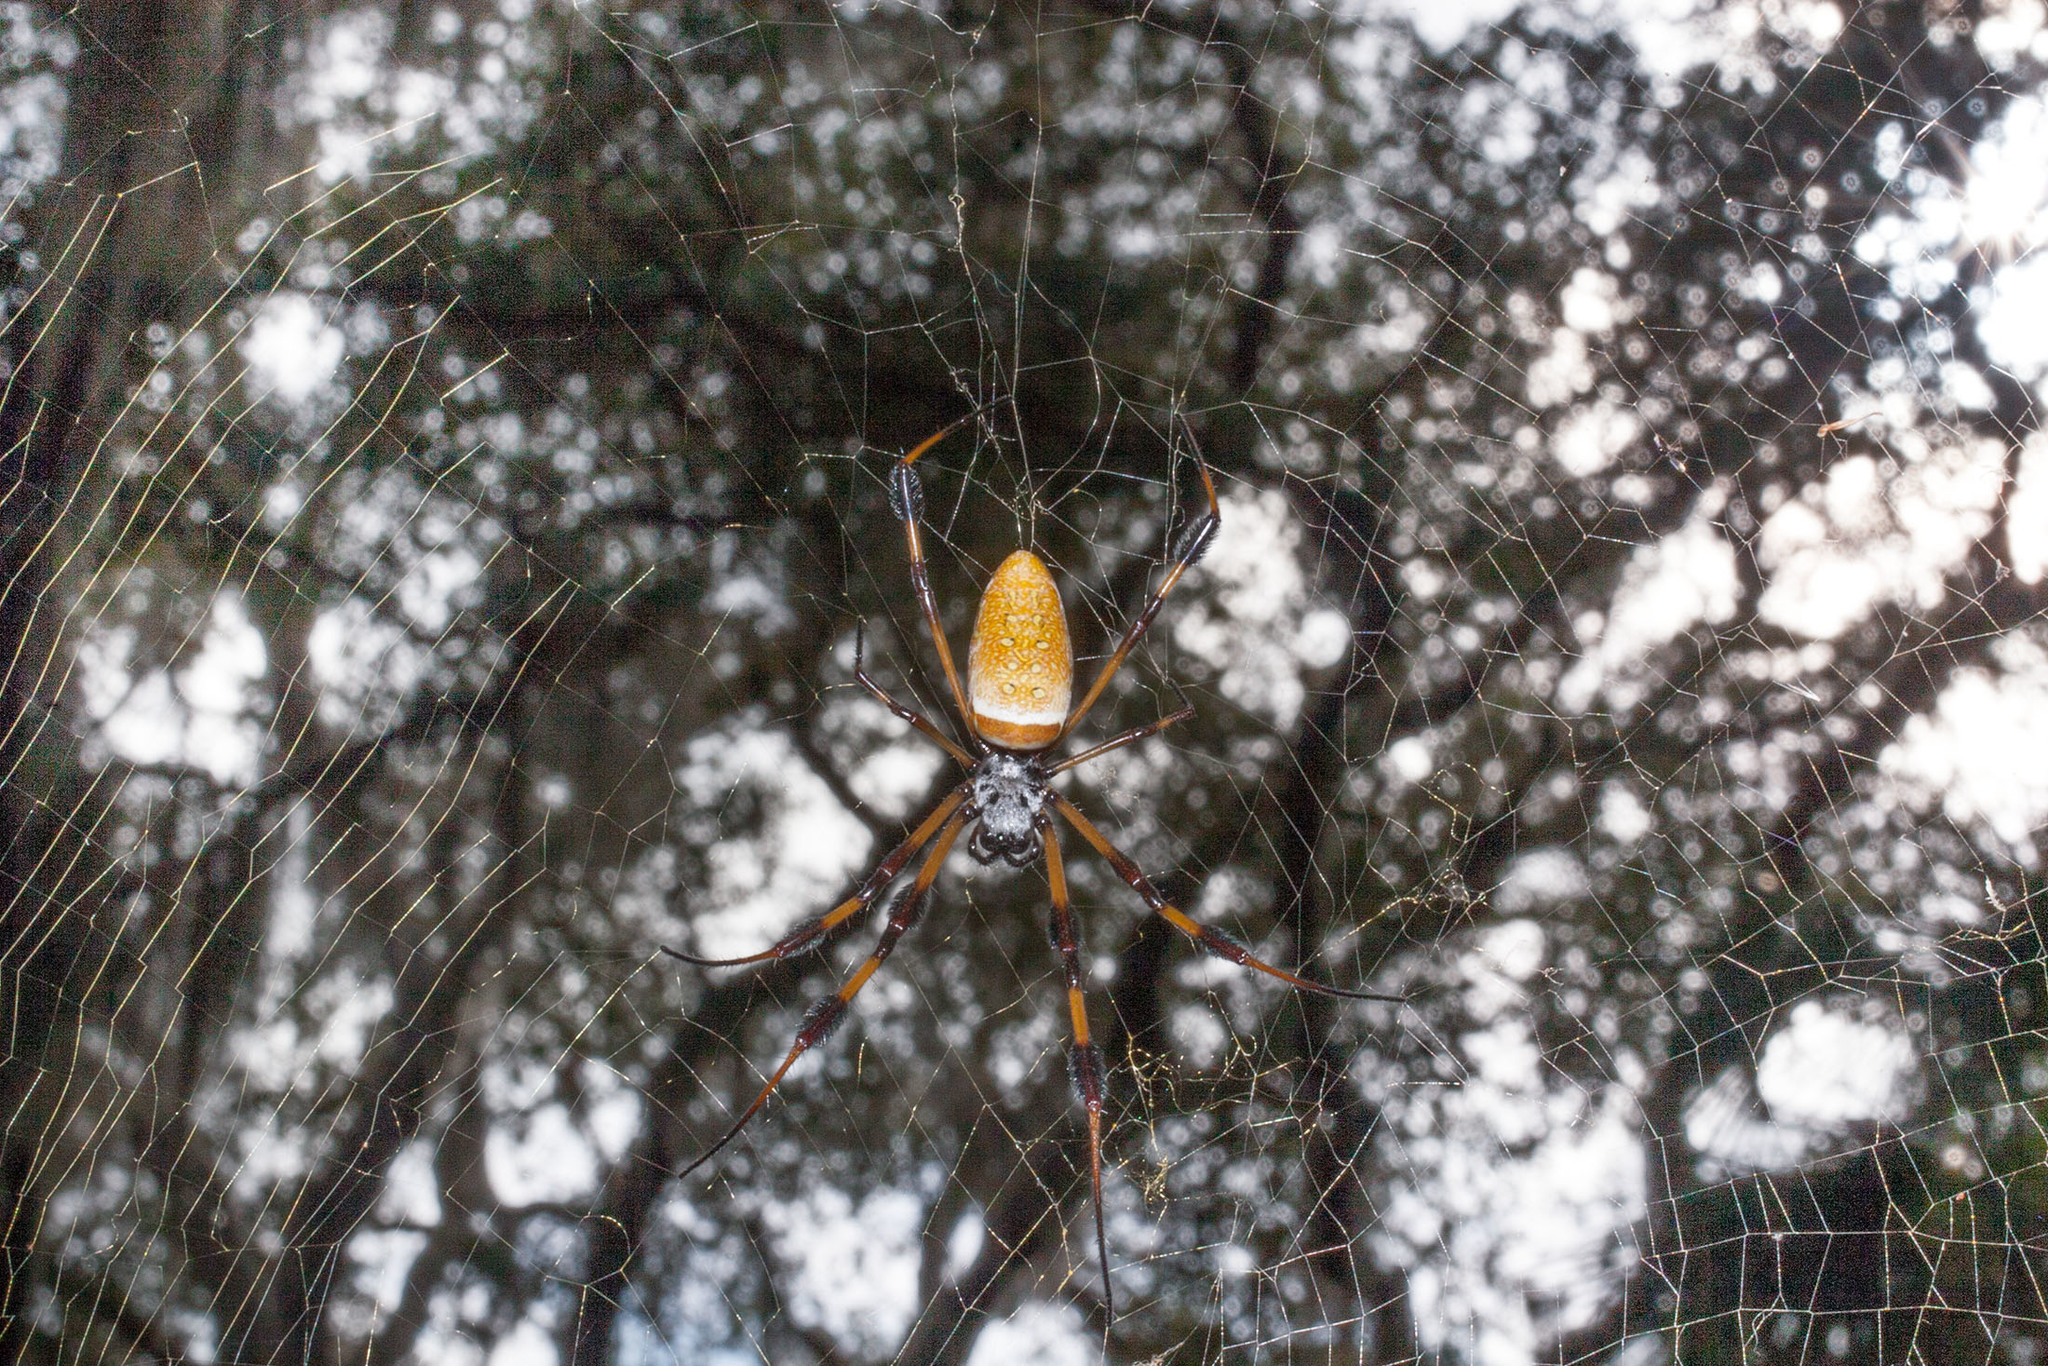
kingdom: Animalia
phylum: Arthropoda
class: Arachnida
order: Araneae
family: Araneidae
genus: Trichonephila
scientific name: Trichonephila clavipes
